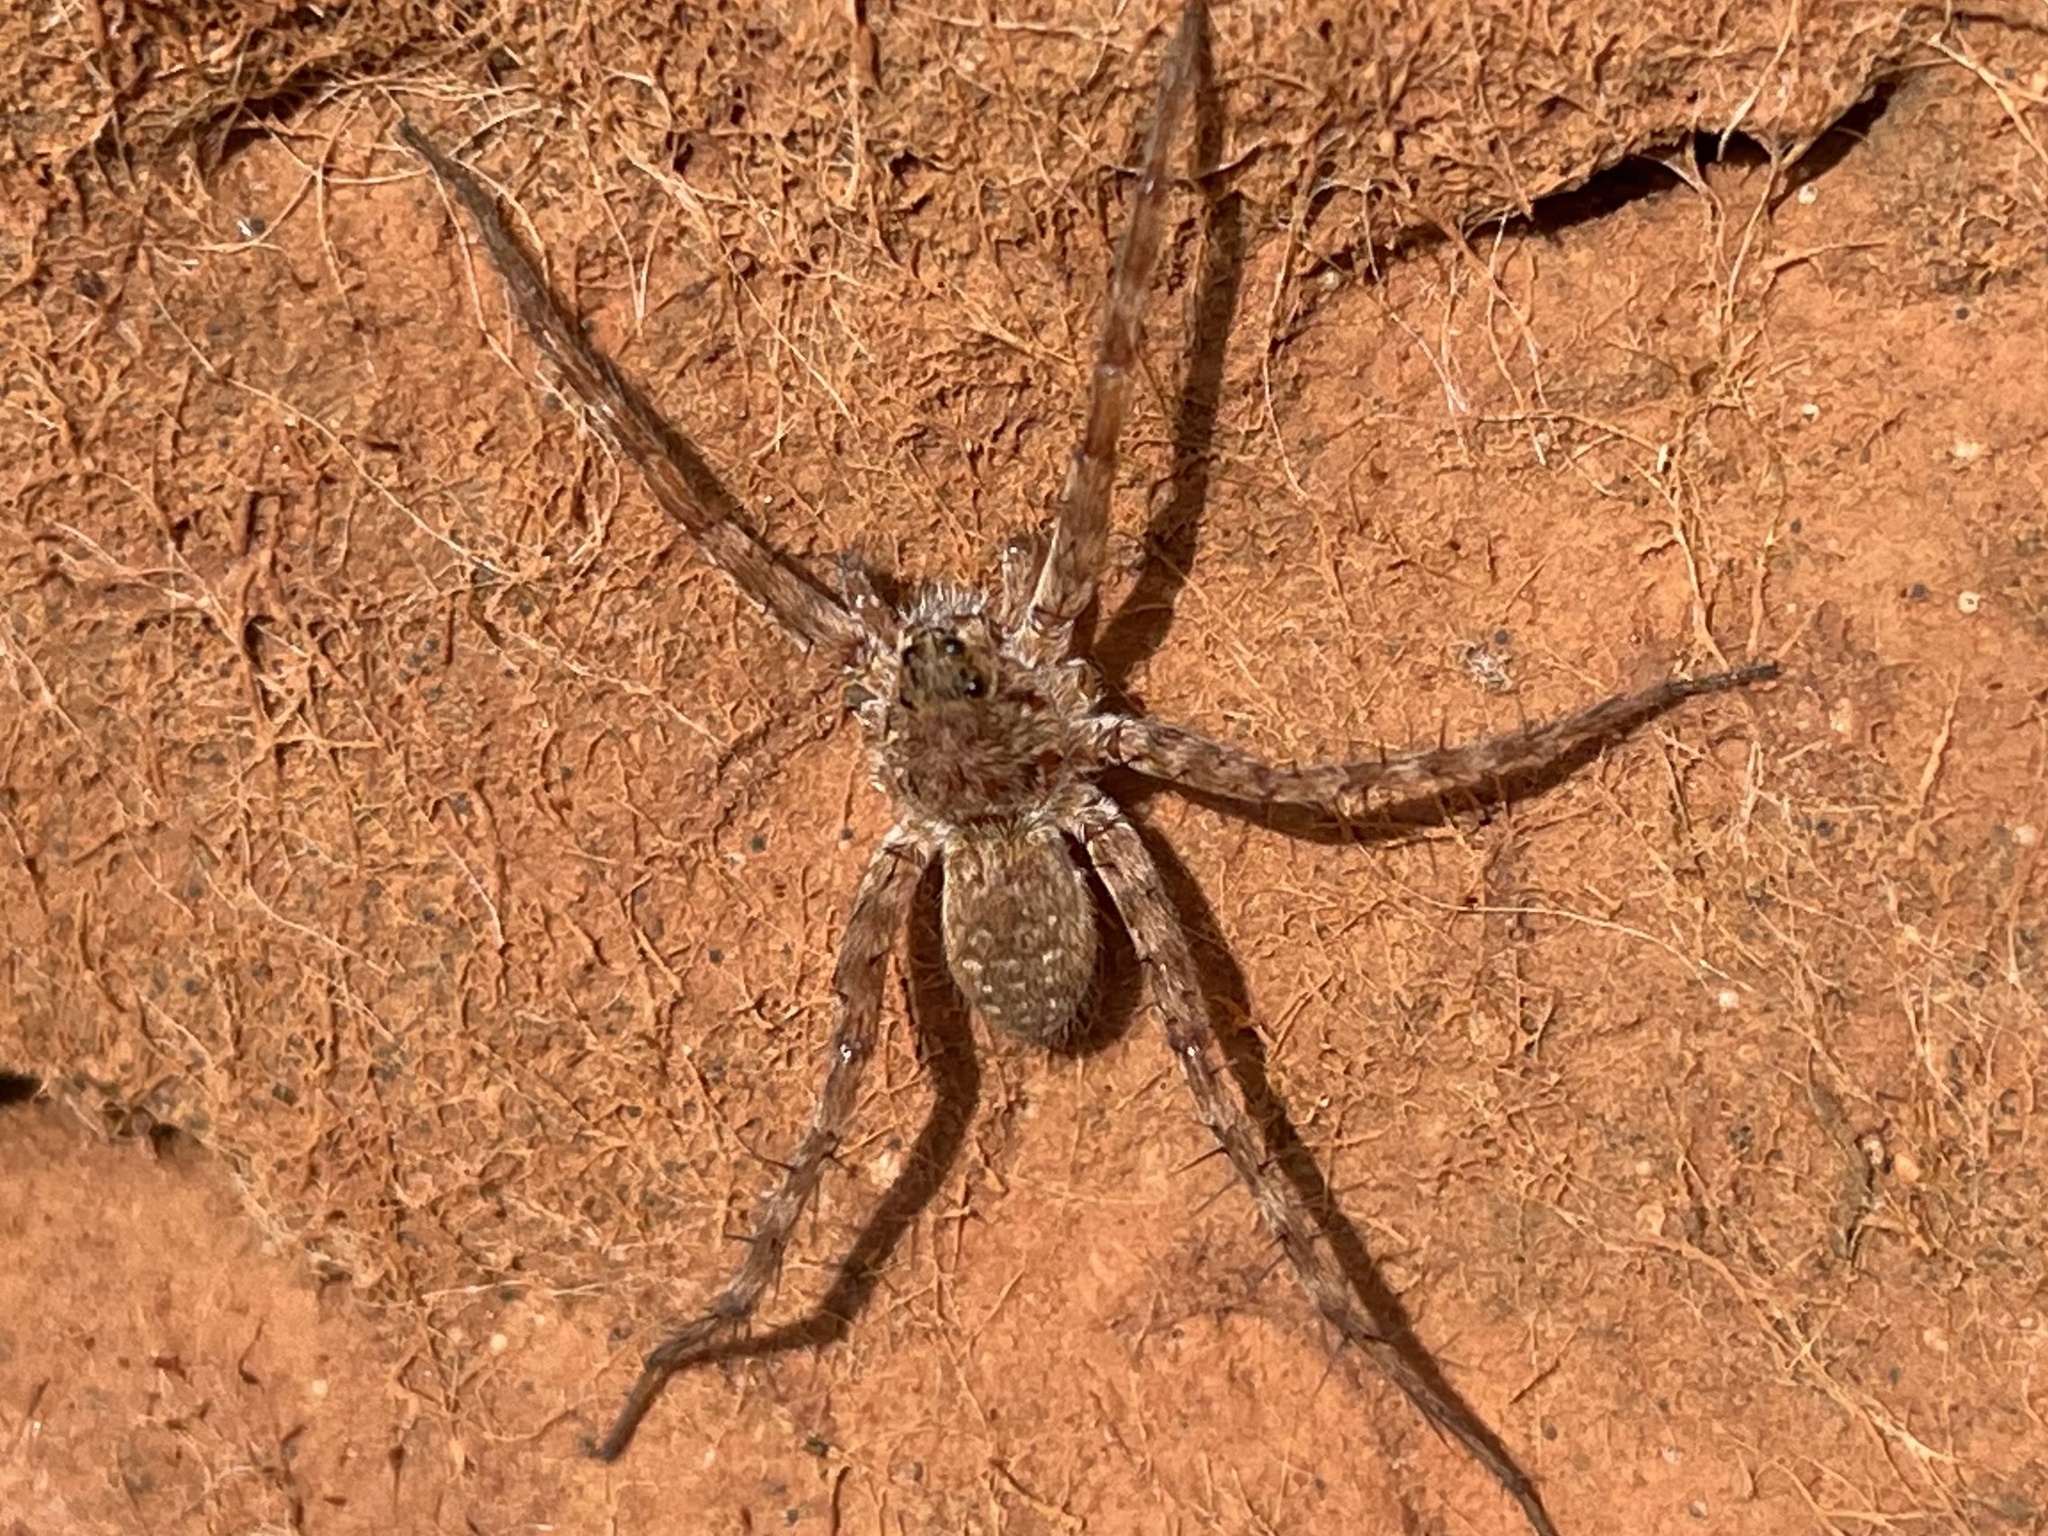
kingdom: Animalia
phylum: Arthropoda
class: Arachnida
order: Araneae
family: Lycosidae
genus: Pardosa
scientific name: Pardosa mercurialis
